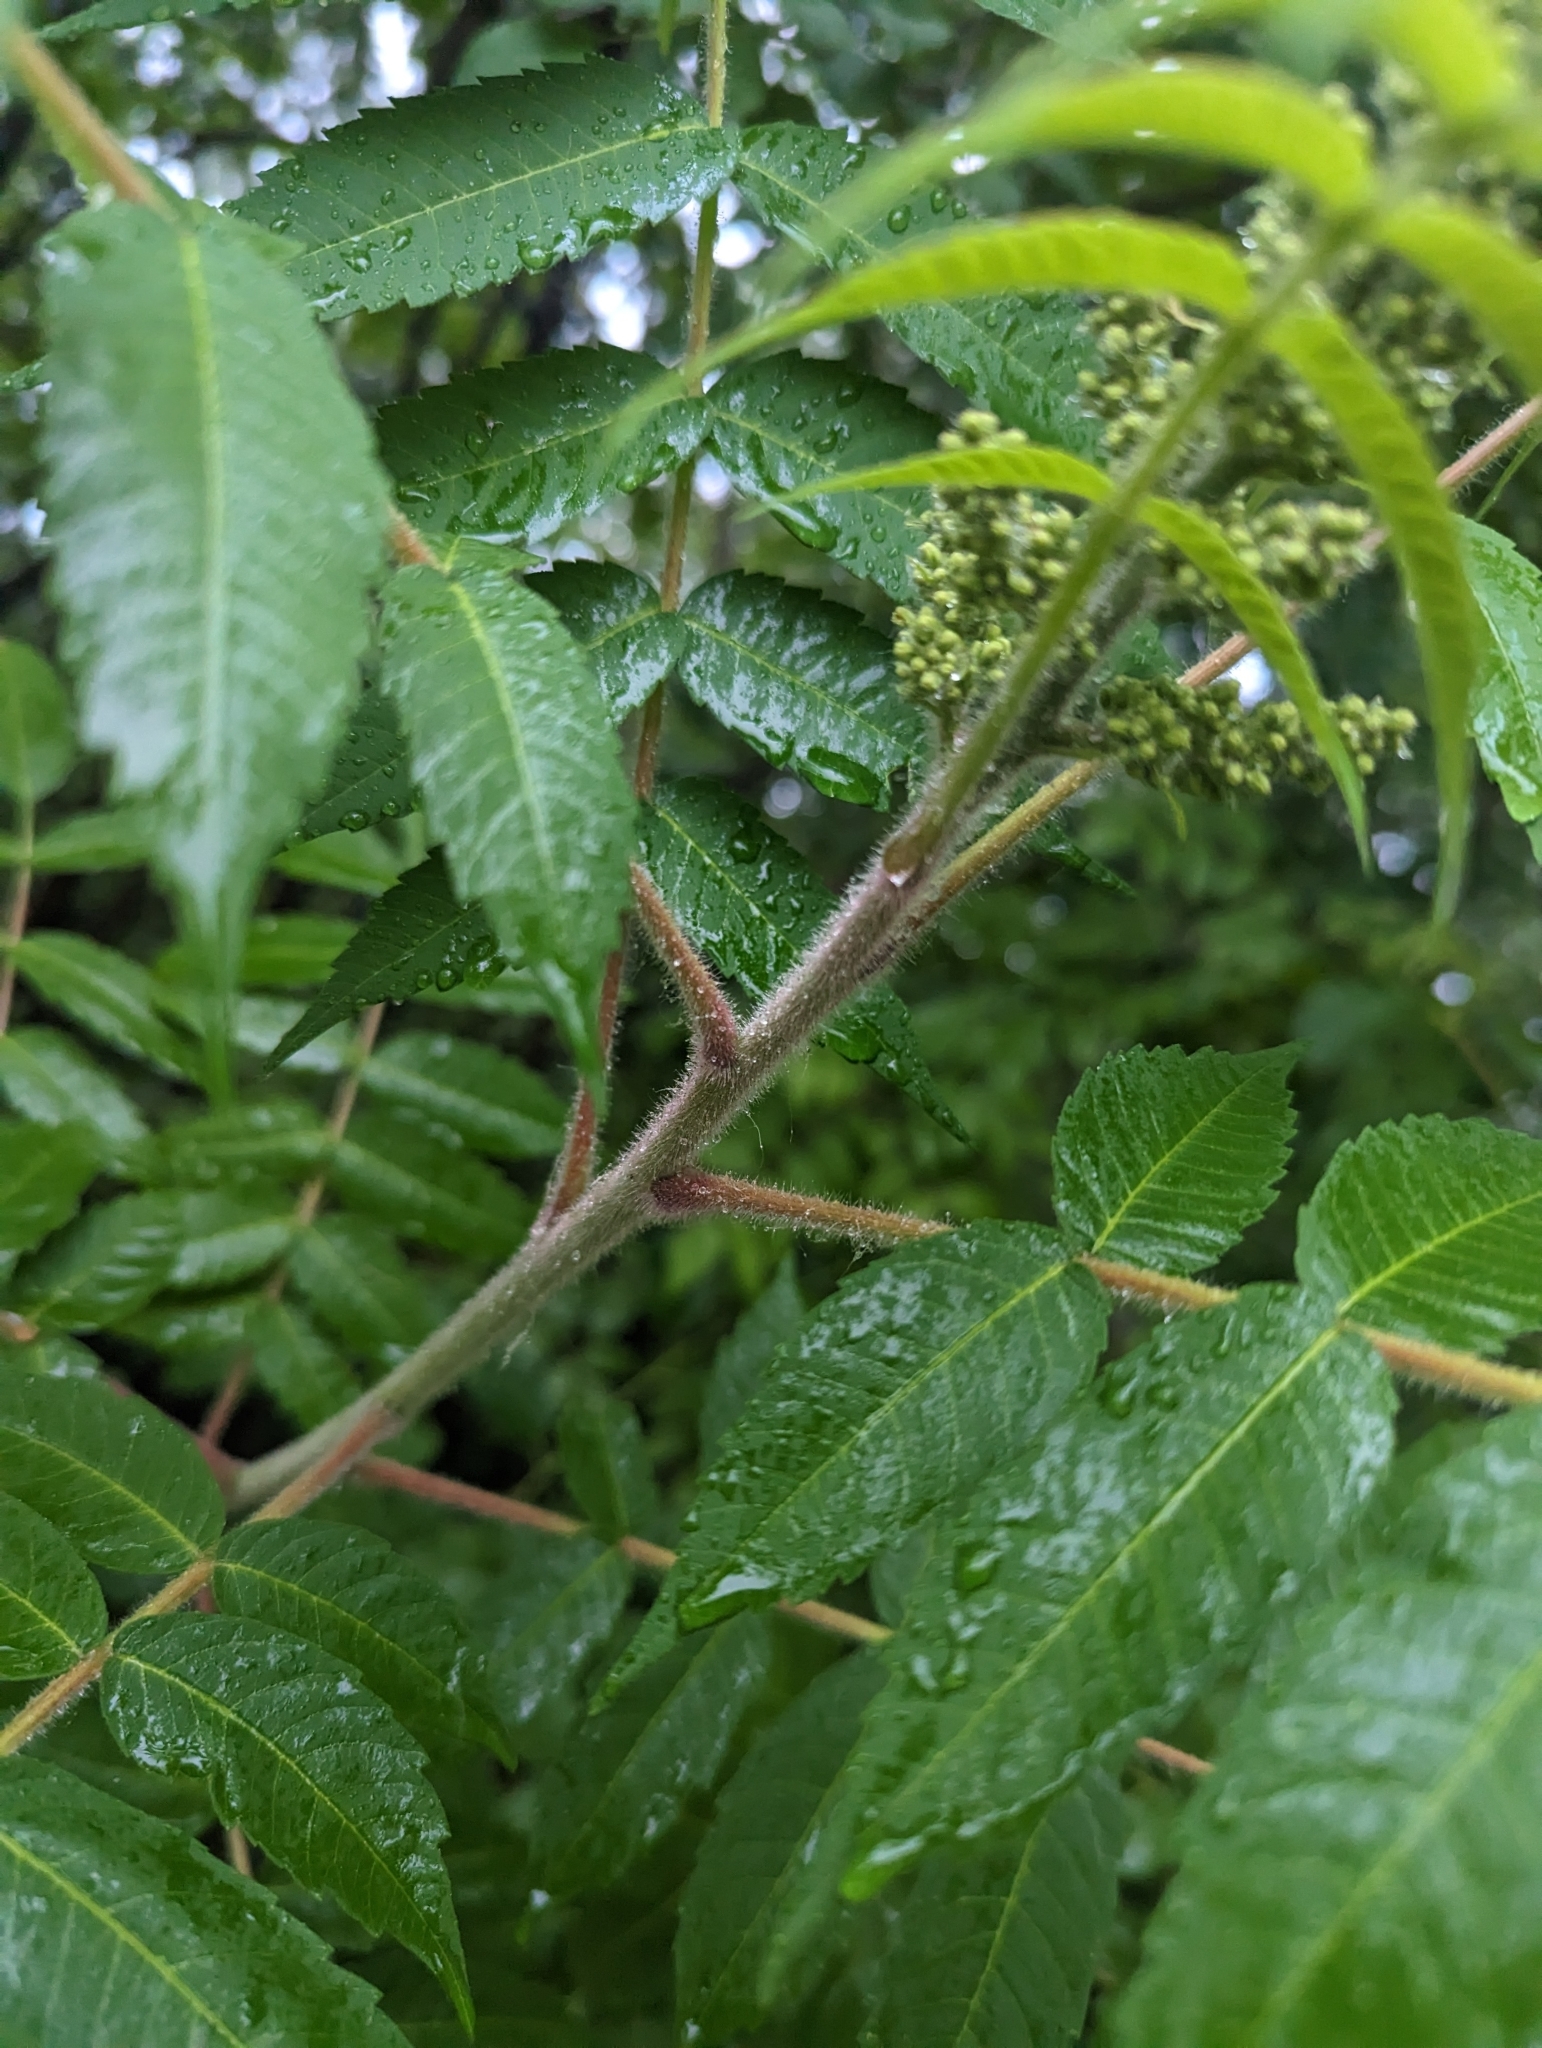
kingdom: Plantae
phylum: Tracheophyta
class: Magnoliopsida
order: Sapindales
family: Anacardiaceae
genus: Rhus
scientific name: Rhus typhina
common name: Staghorn sumac
